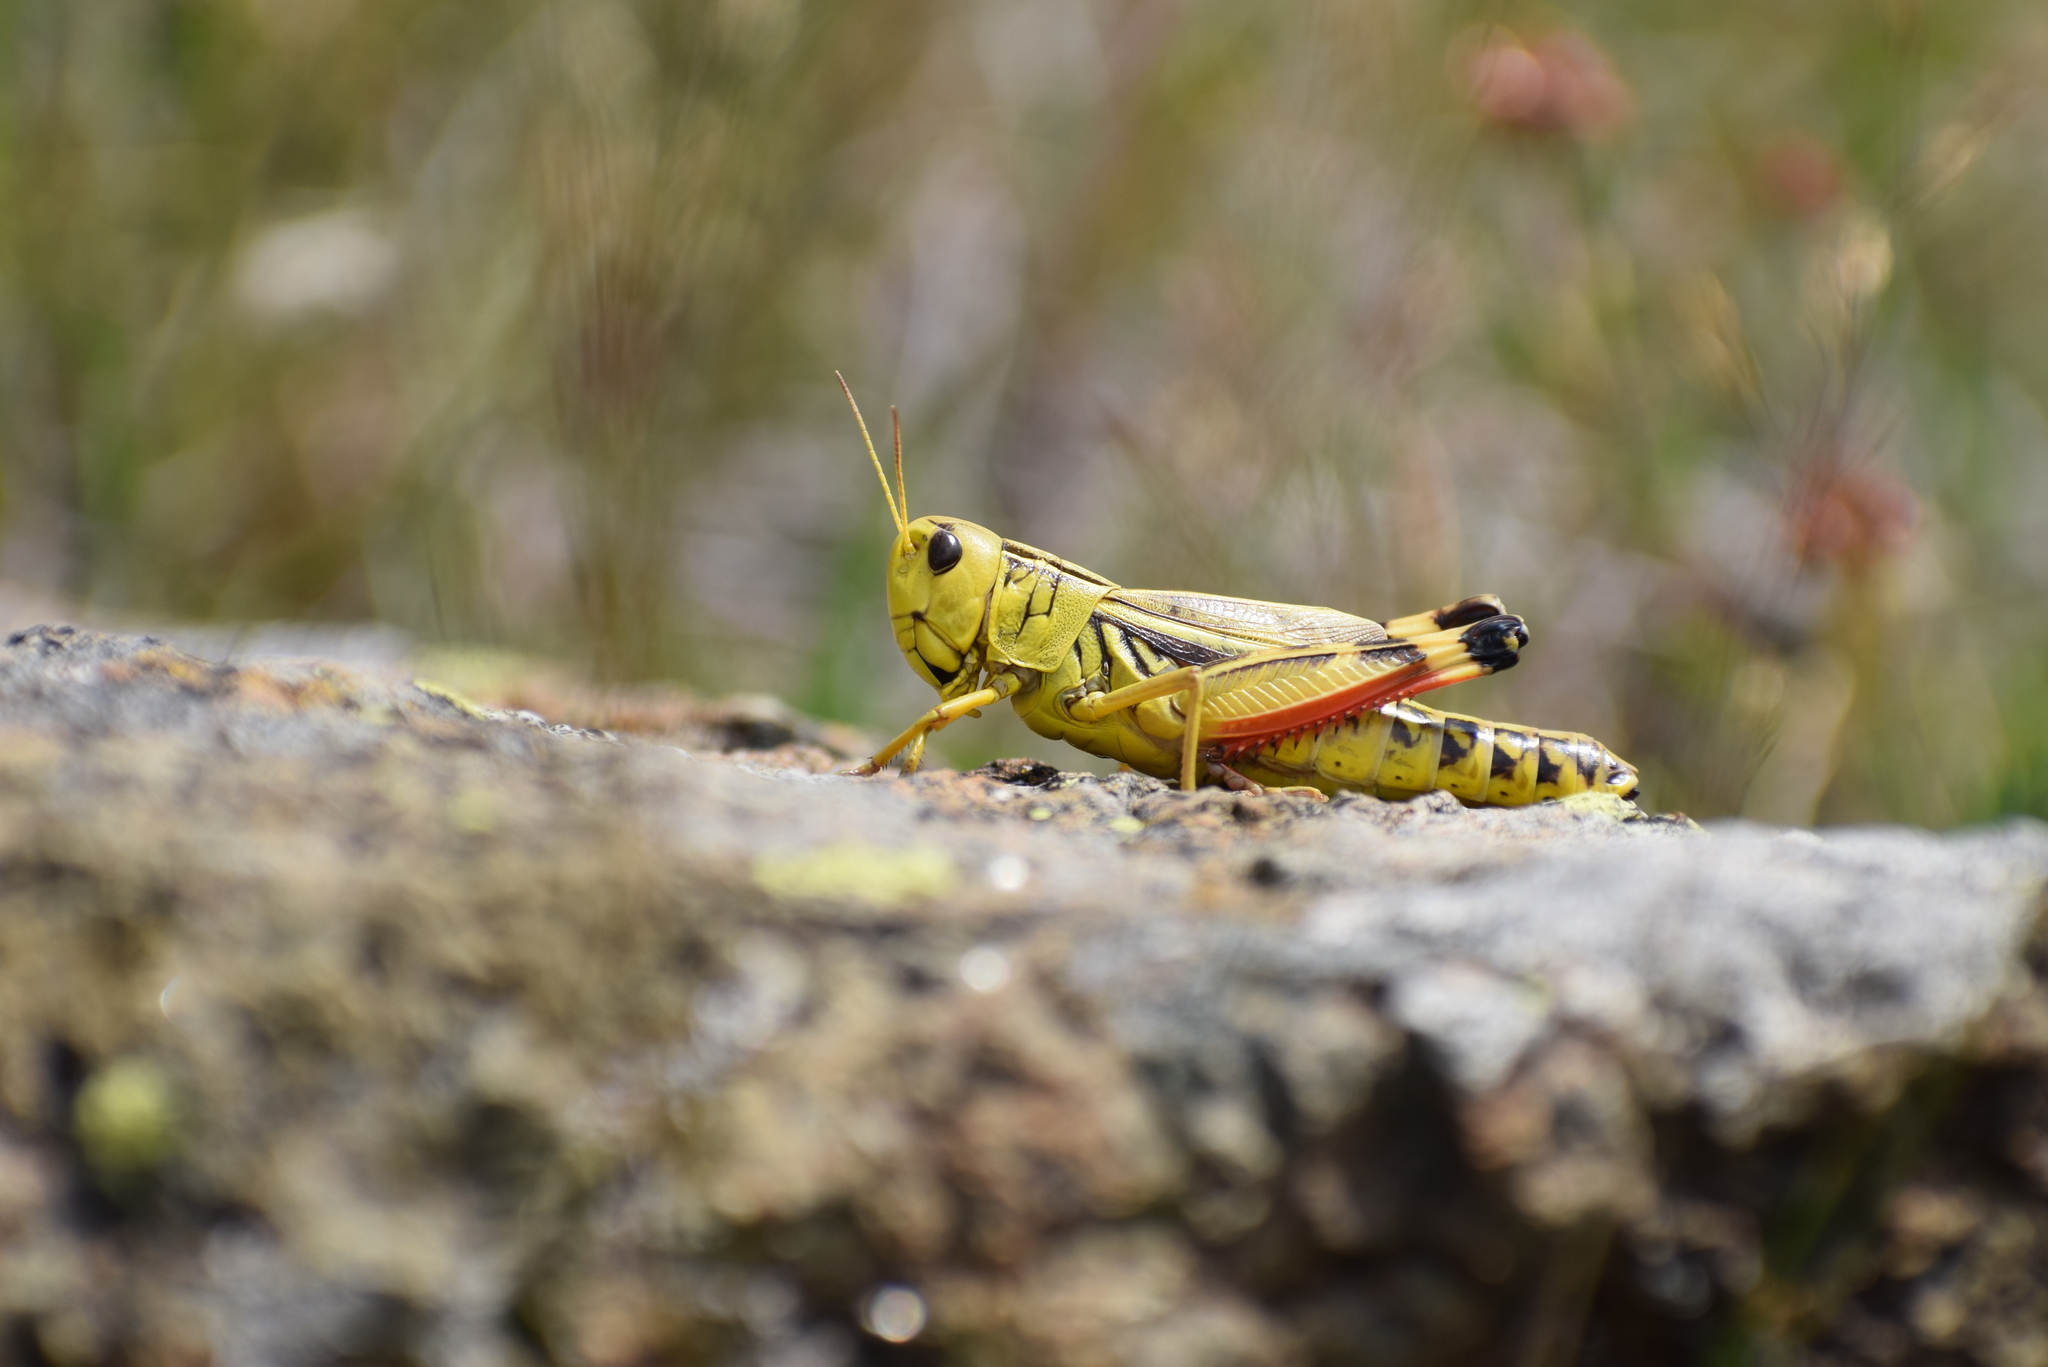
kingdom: Animalia
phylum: Arthropoda
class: Insecta
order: Orthoptera
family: Acrididae
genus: Arcyptera
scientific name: Arcyptera fusca
